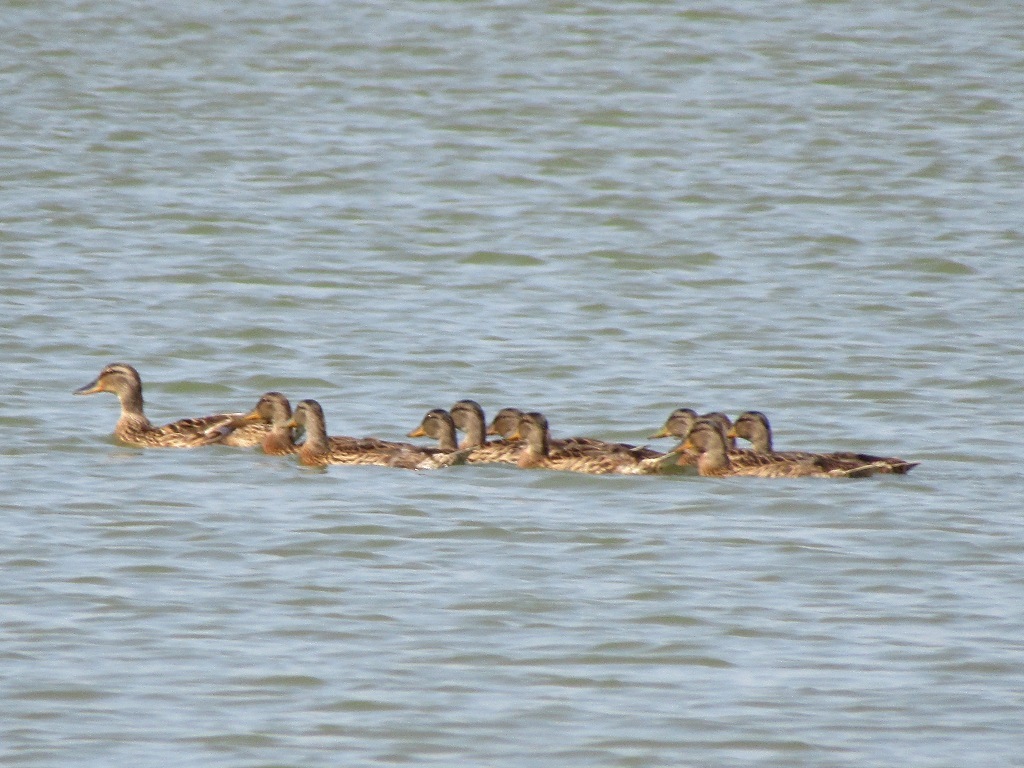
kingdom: Animalia
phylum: Chordata
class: Aves
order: Anseriformes
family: Anatidae
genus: Anas
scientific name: Anas platyrhynchos
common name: Mallard
